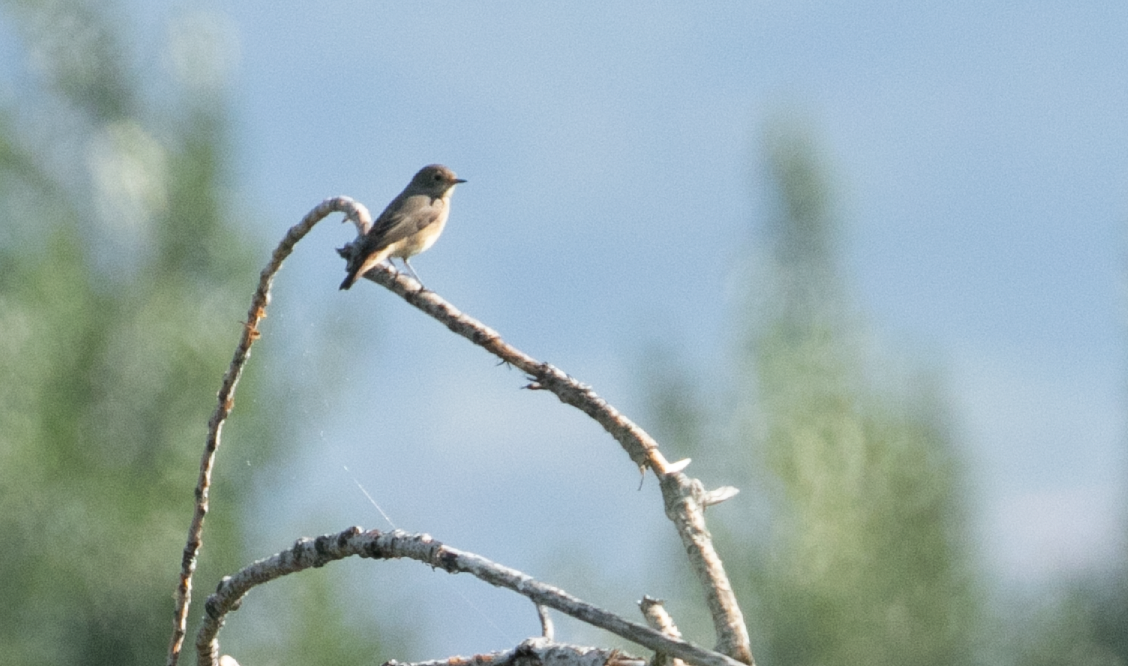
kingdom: Animalia
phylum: Chordata
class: Aves
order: Passeriformes
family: Muscicapidae
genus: Phoenicurus
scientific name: Phoenicurus phoenicurus
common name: Common redstart
